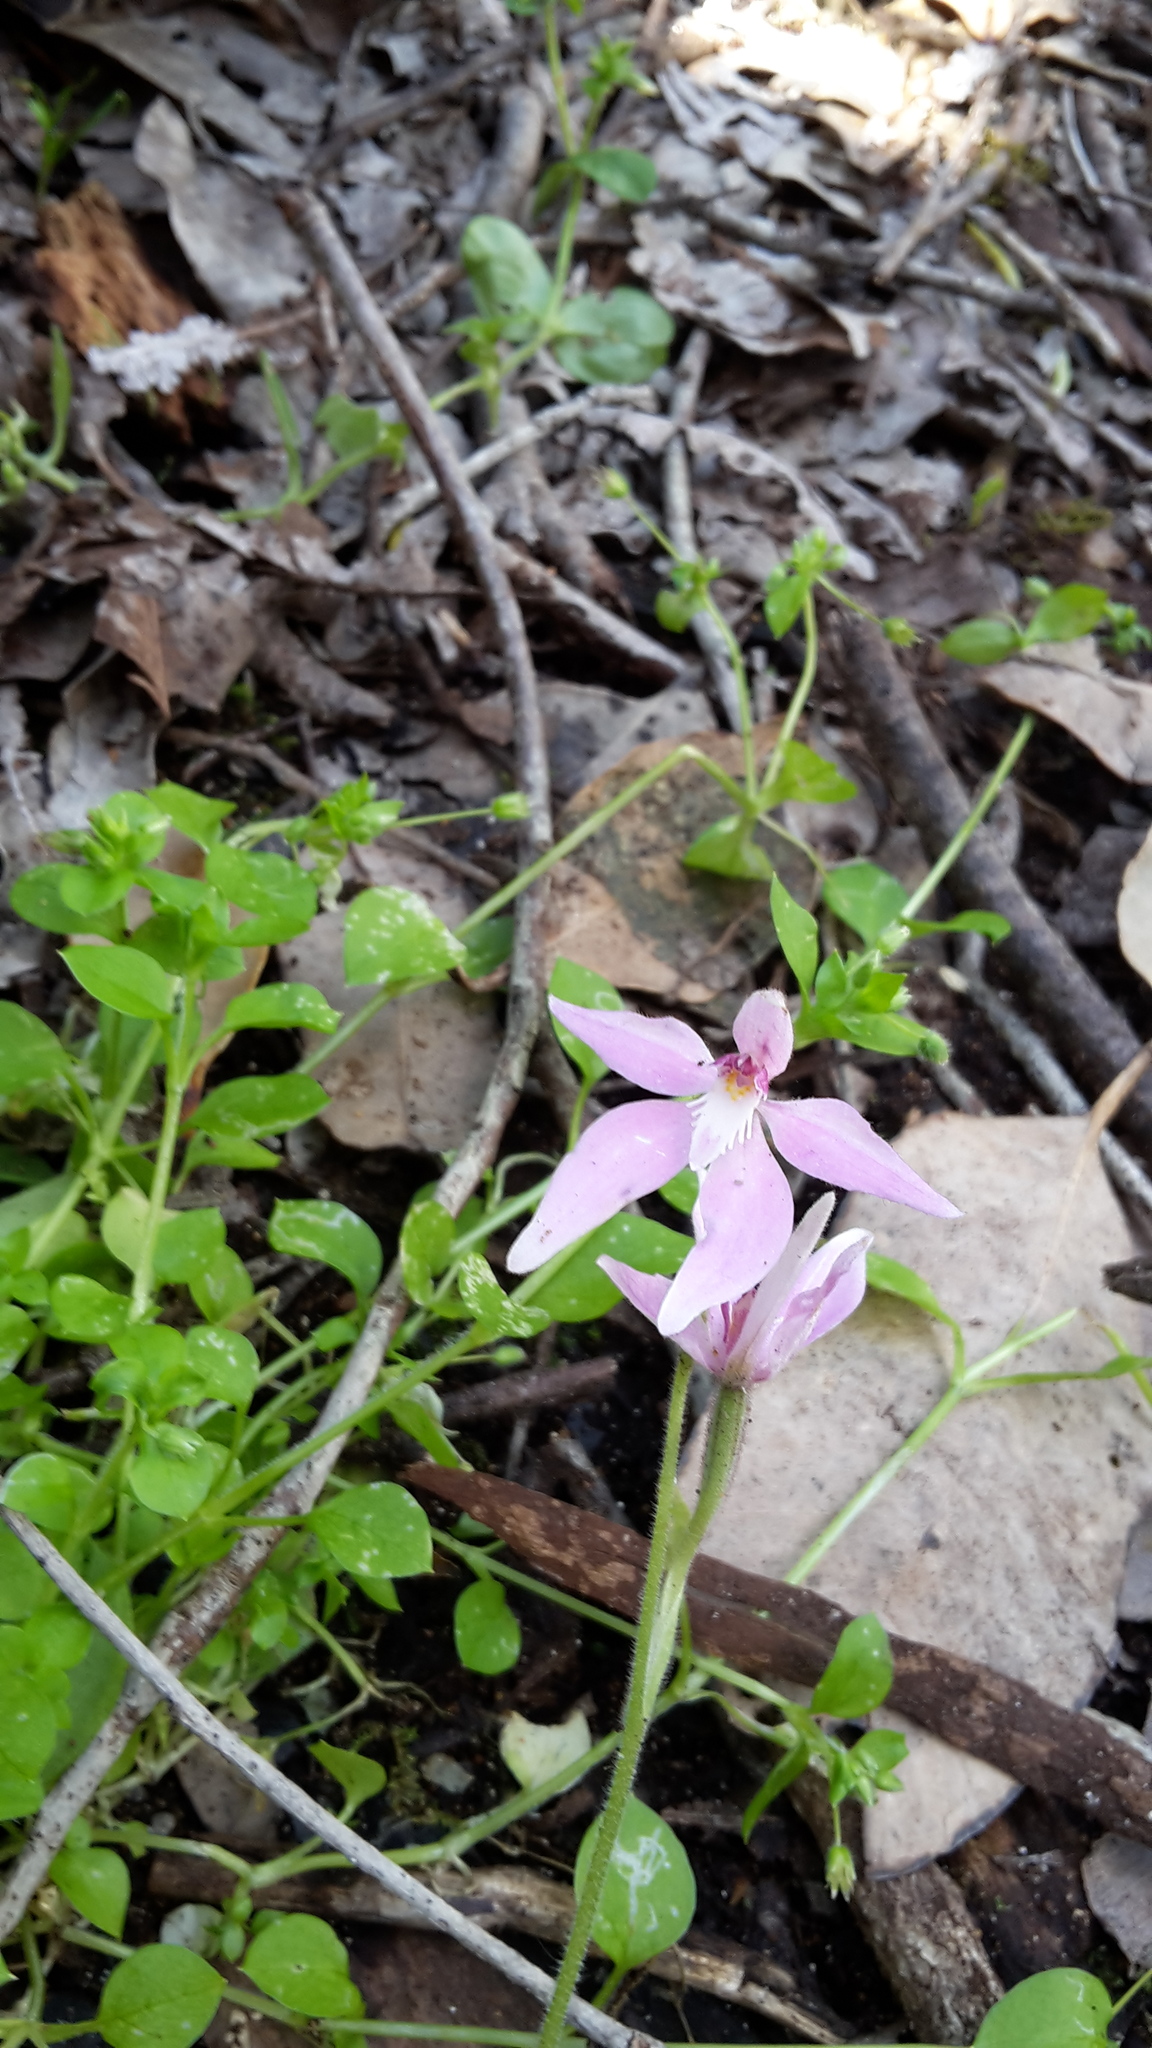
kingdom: Plantae
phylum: Tracheophyta
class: Liliopsida
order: Asparagales
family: Orchidaceae
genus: Caladenia
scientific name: Caladenia latifolia
